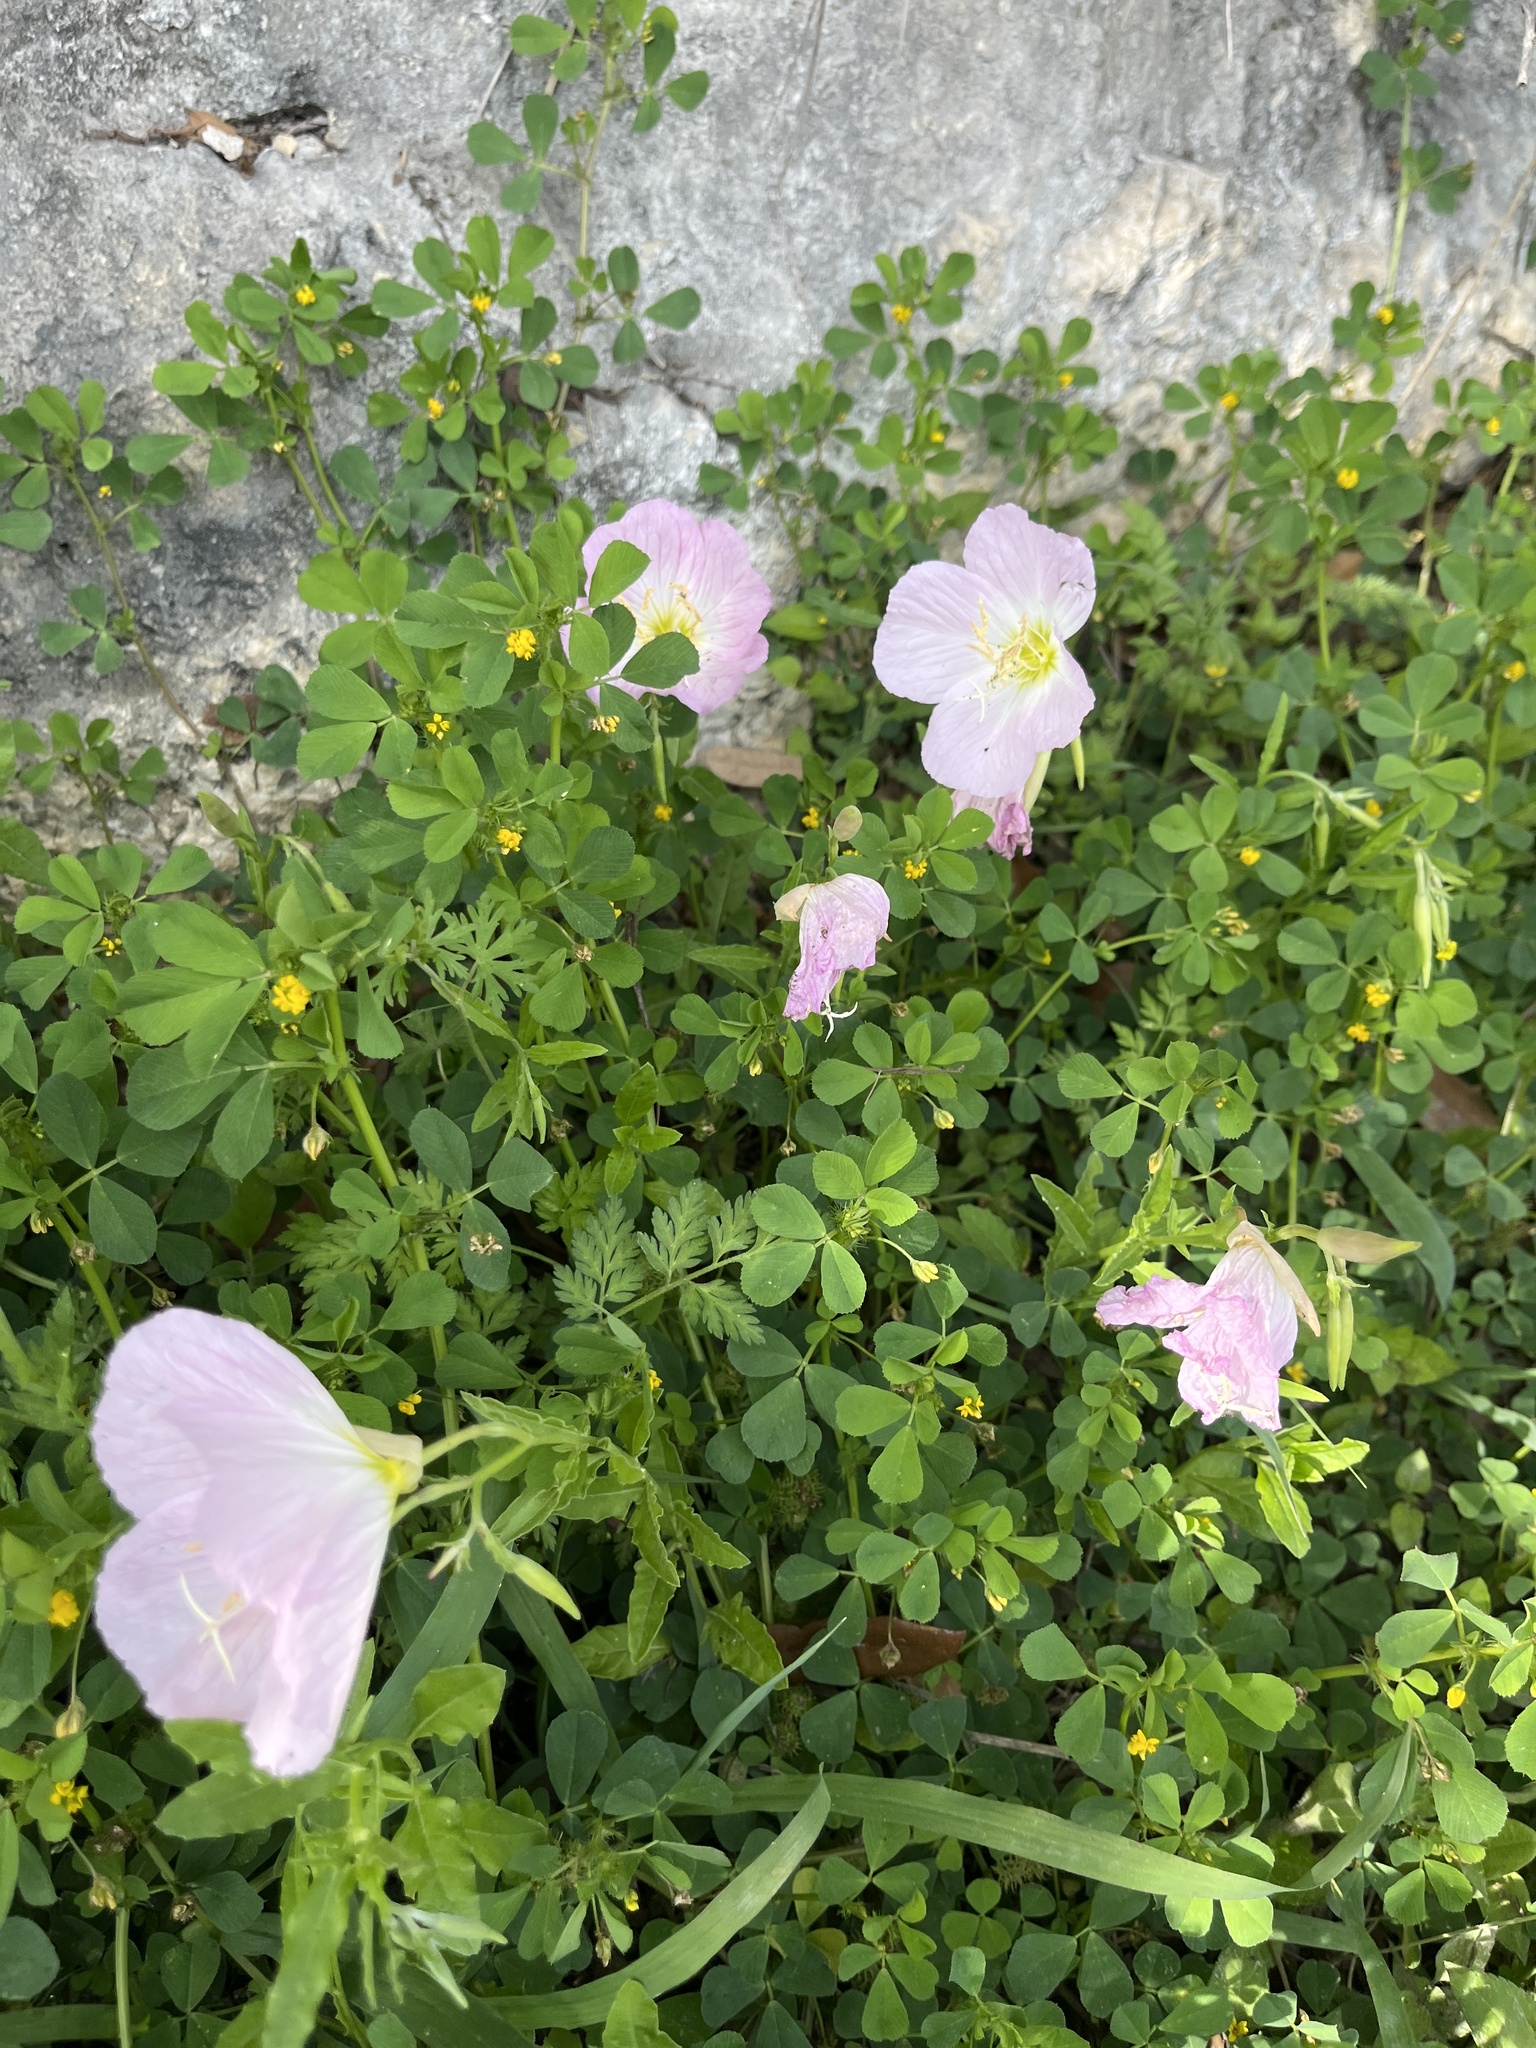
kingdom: Plantae
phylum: Tracheophyta
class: Magnoliopsida
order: Myrtales
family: Onagraceae
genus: Oenothera
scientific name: Oenothera speciosa
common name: White evening-primrose
